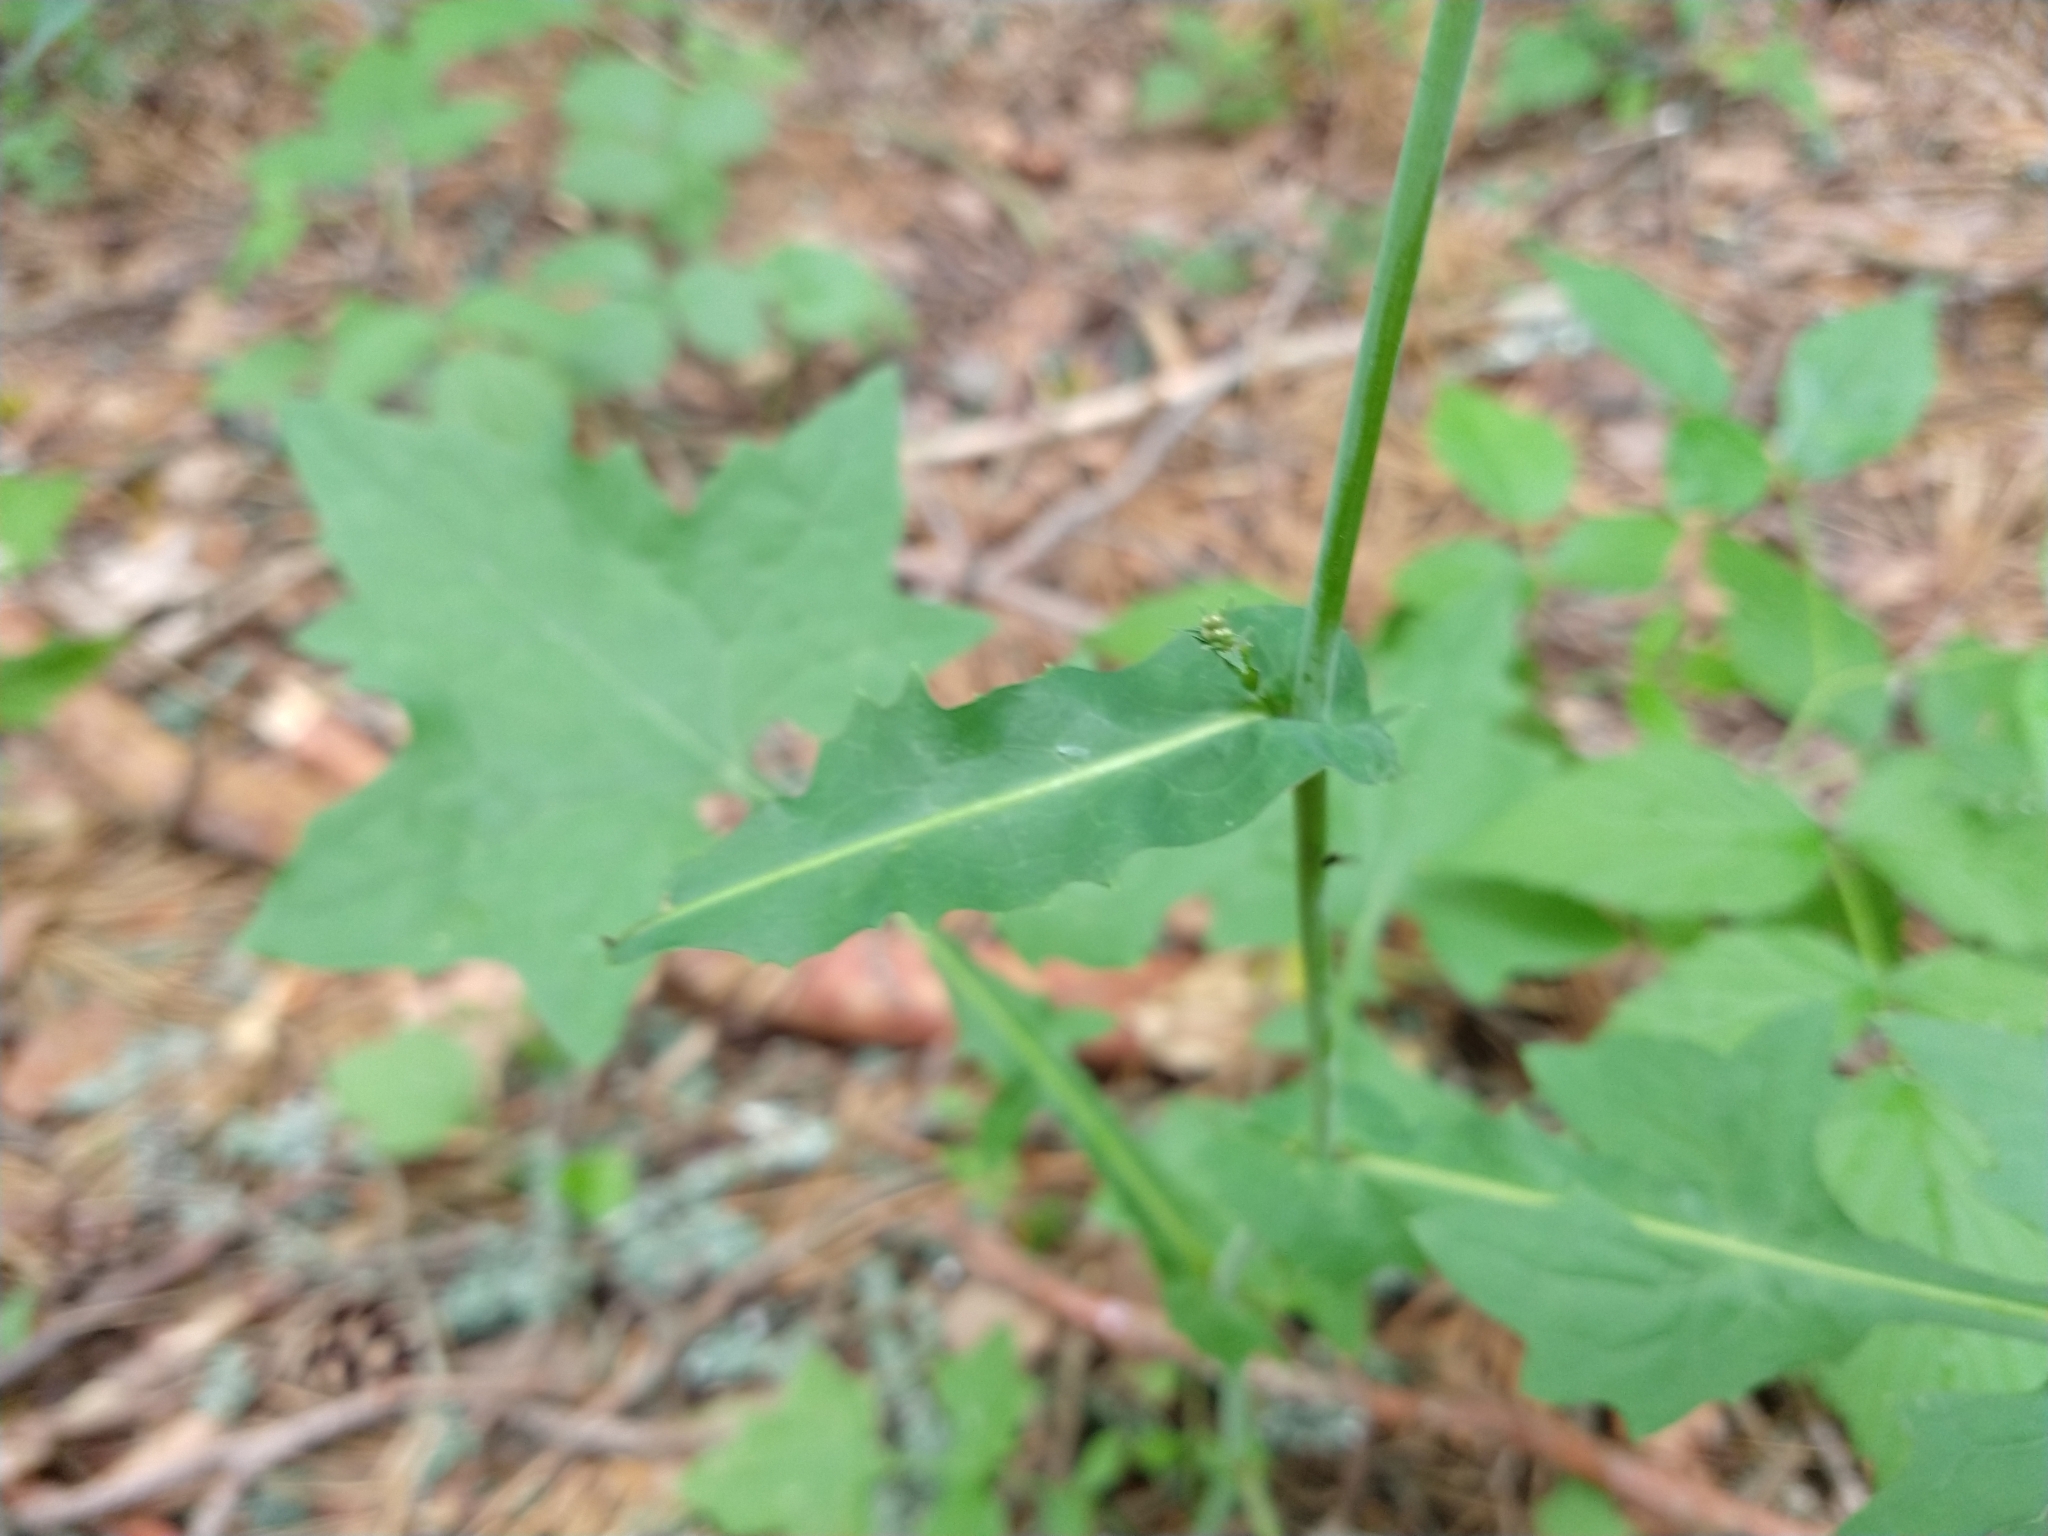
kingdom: Plantae
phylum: Tracheophyta
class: Magnoliopsida
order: Asterales
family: Asteraceae
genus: Mycelis
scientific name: Mycelis muralis
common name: Wall lettuce
